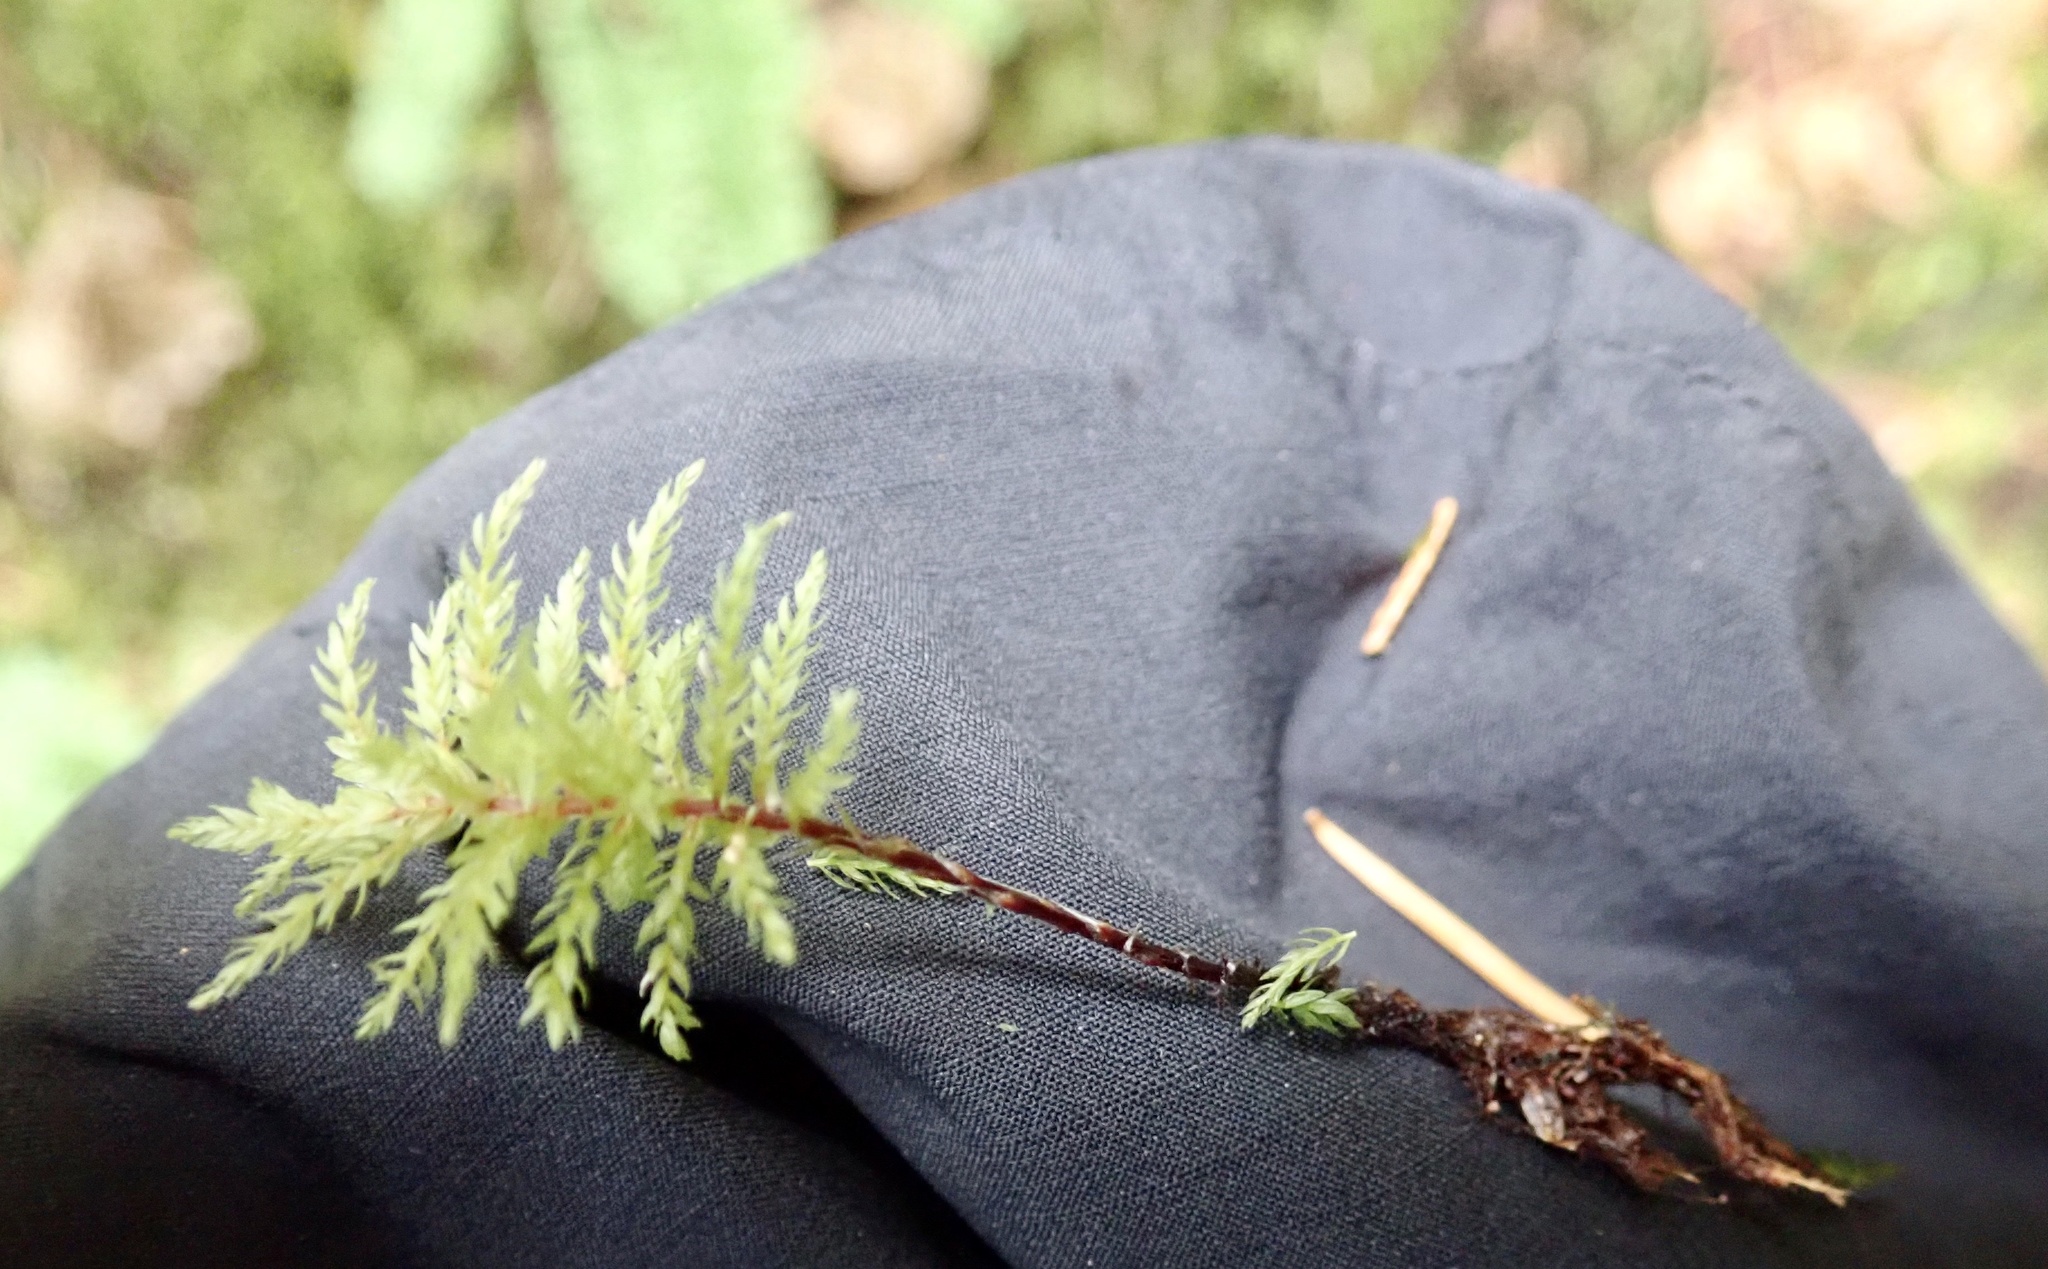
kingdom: Plantae
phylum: Bryophyta
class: Bryopsida
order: Bryales
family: Mniaceae
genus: Leucolepis
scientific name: Leucolepis acanthoneura
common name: Leucolepis umbrella moss
